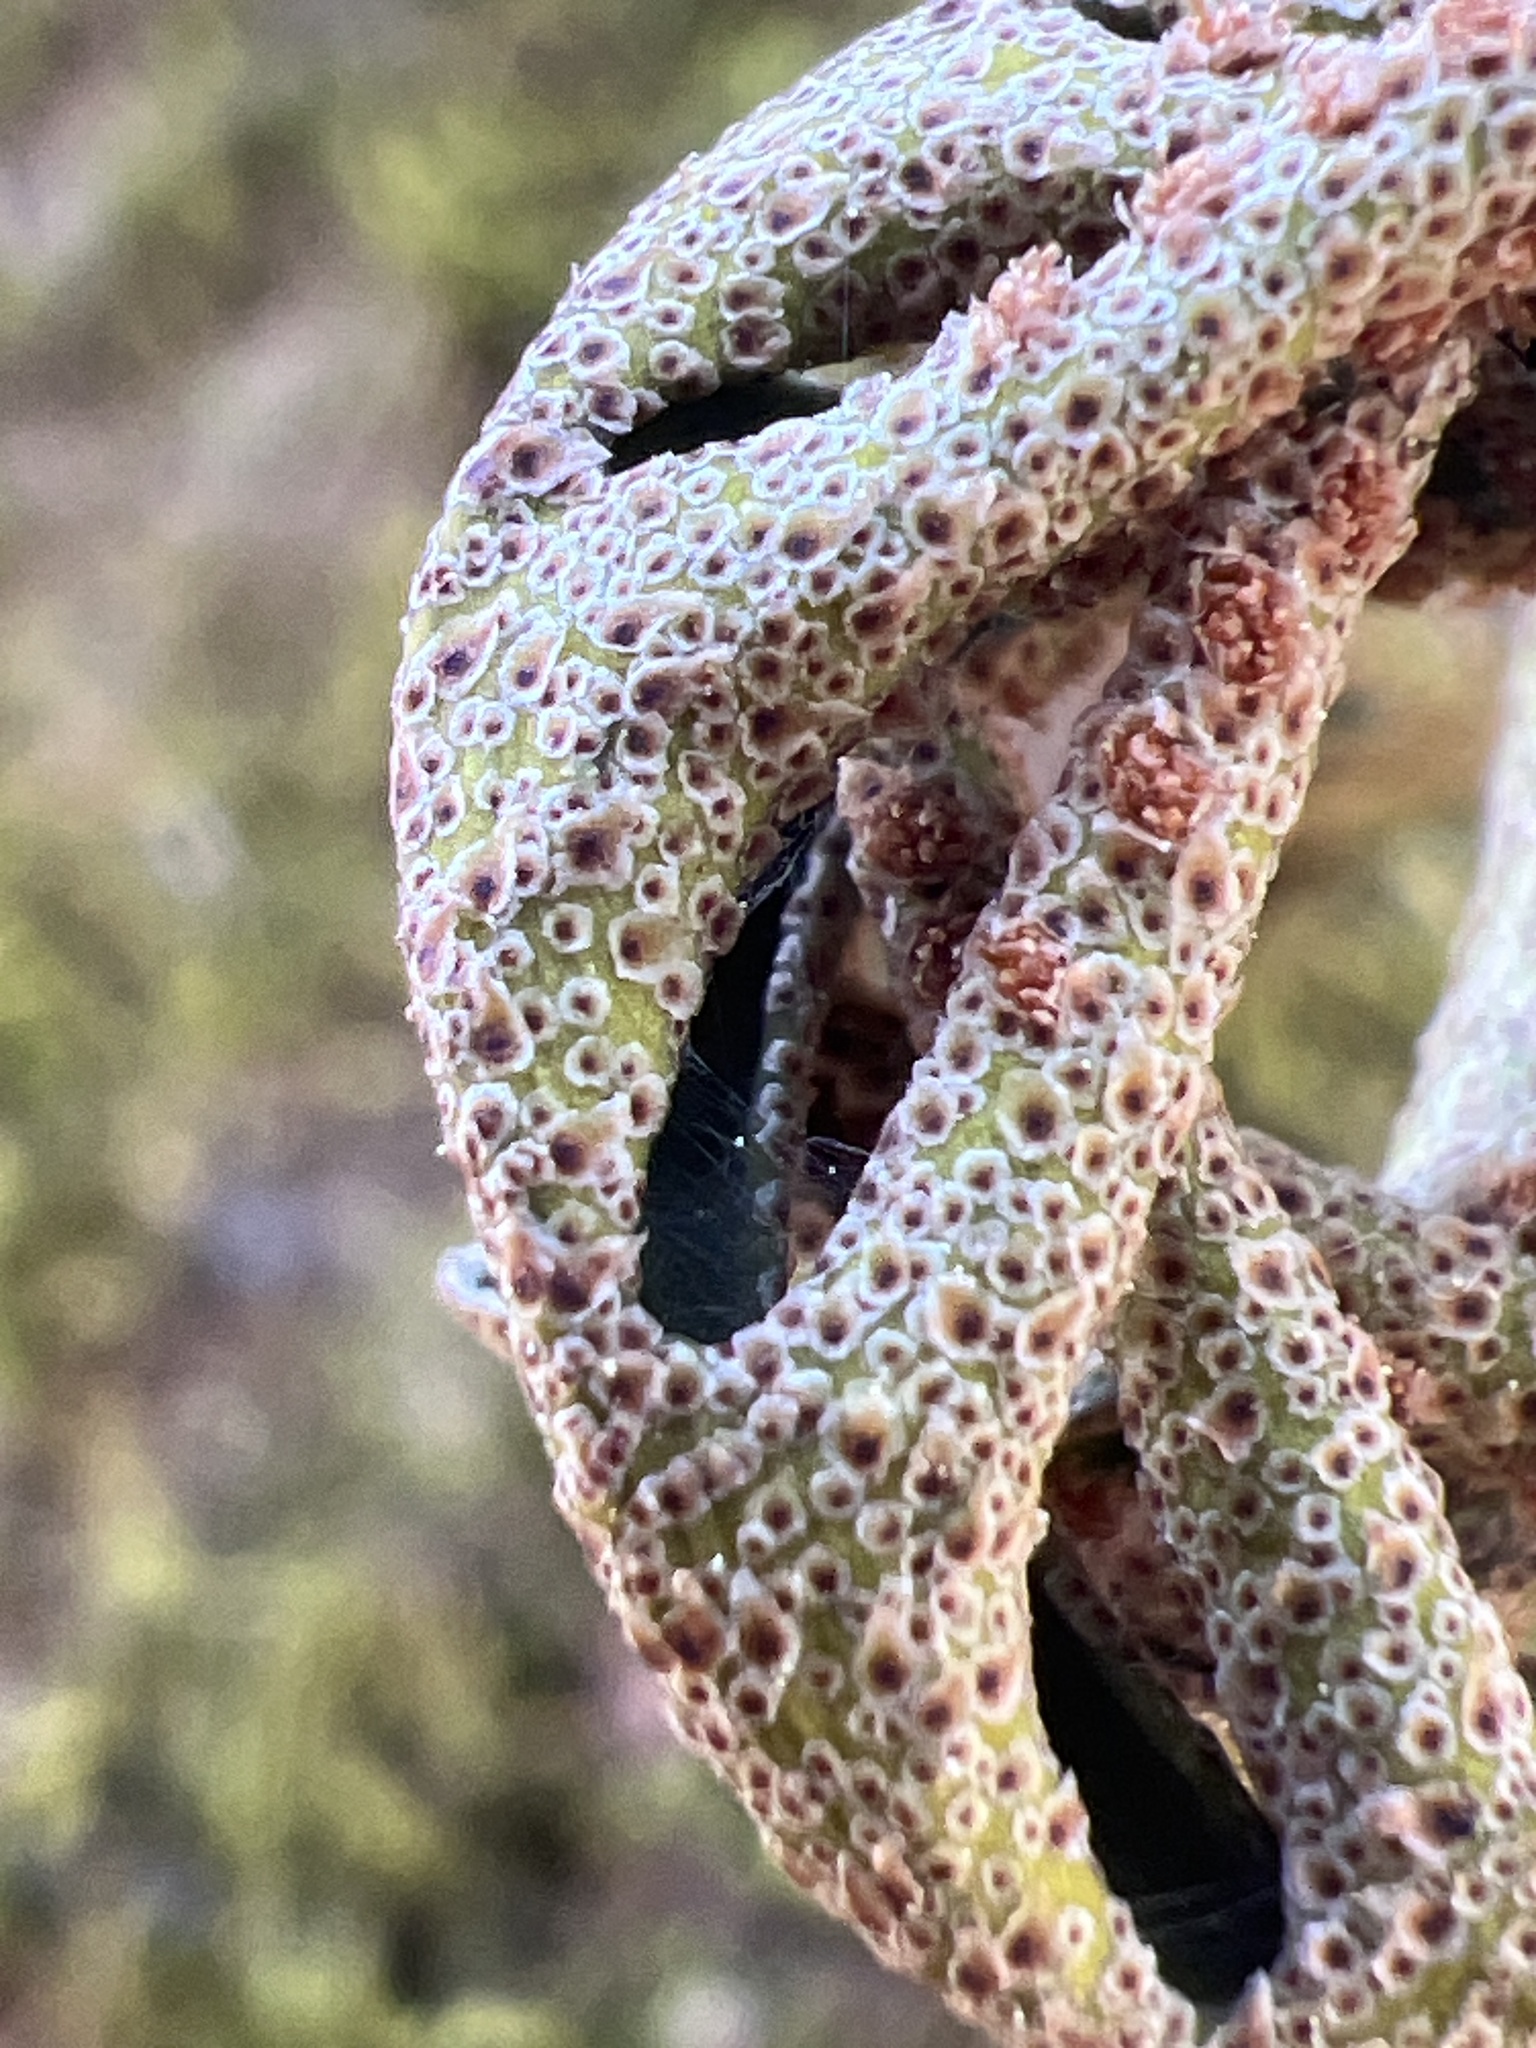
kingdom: Plantae
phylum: Tracheophyta
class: Polypodiopsida
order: Polypodiales
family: Polypodiaceae
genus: Pleopeltis
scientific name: Pleopeltis michauxiana
